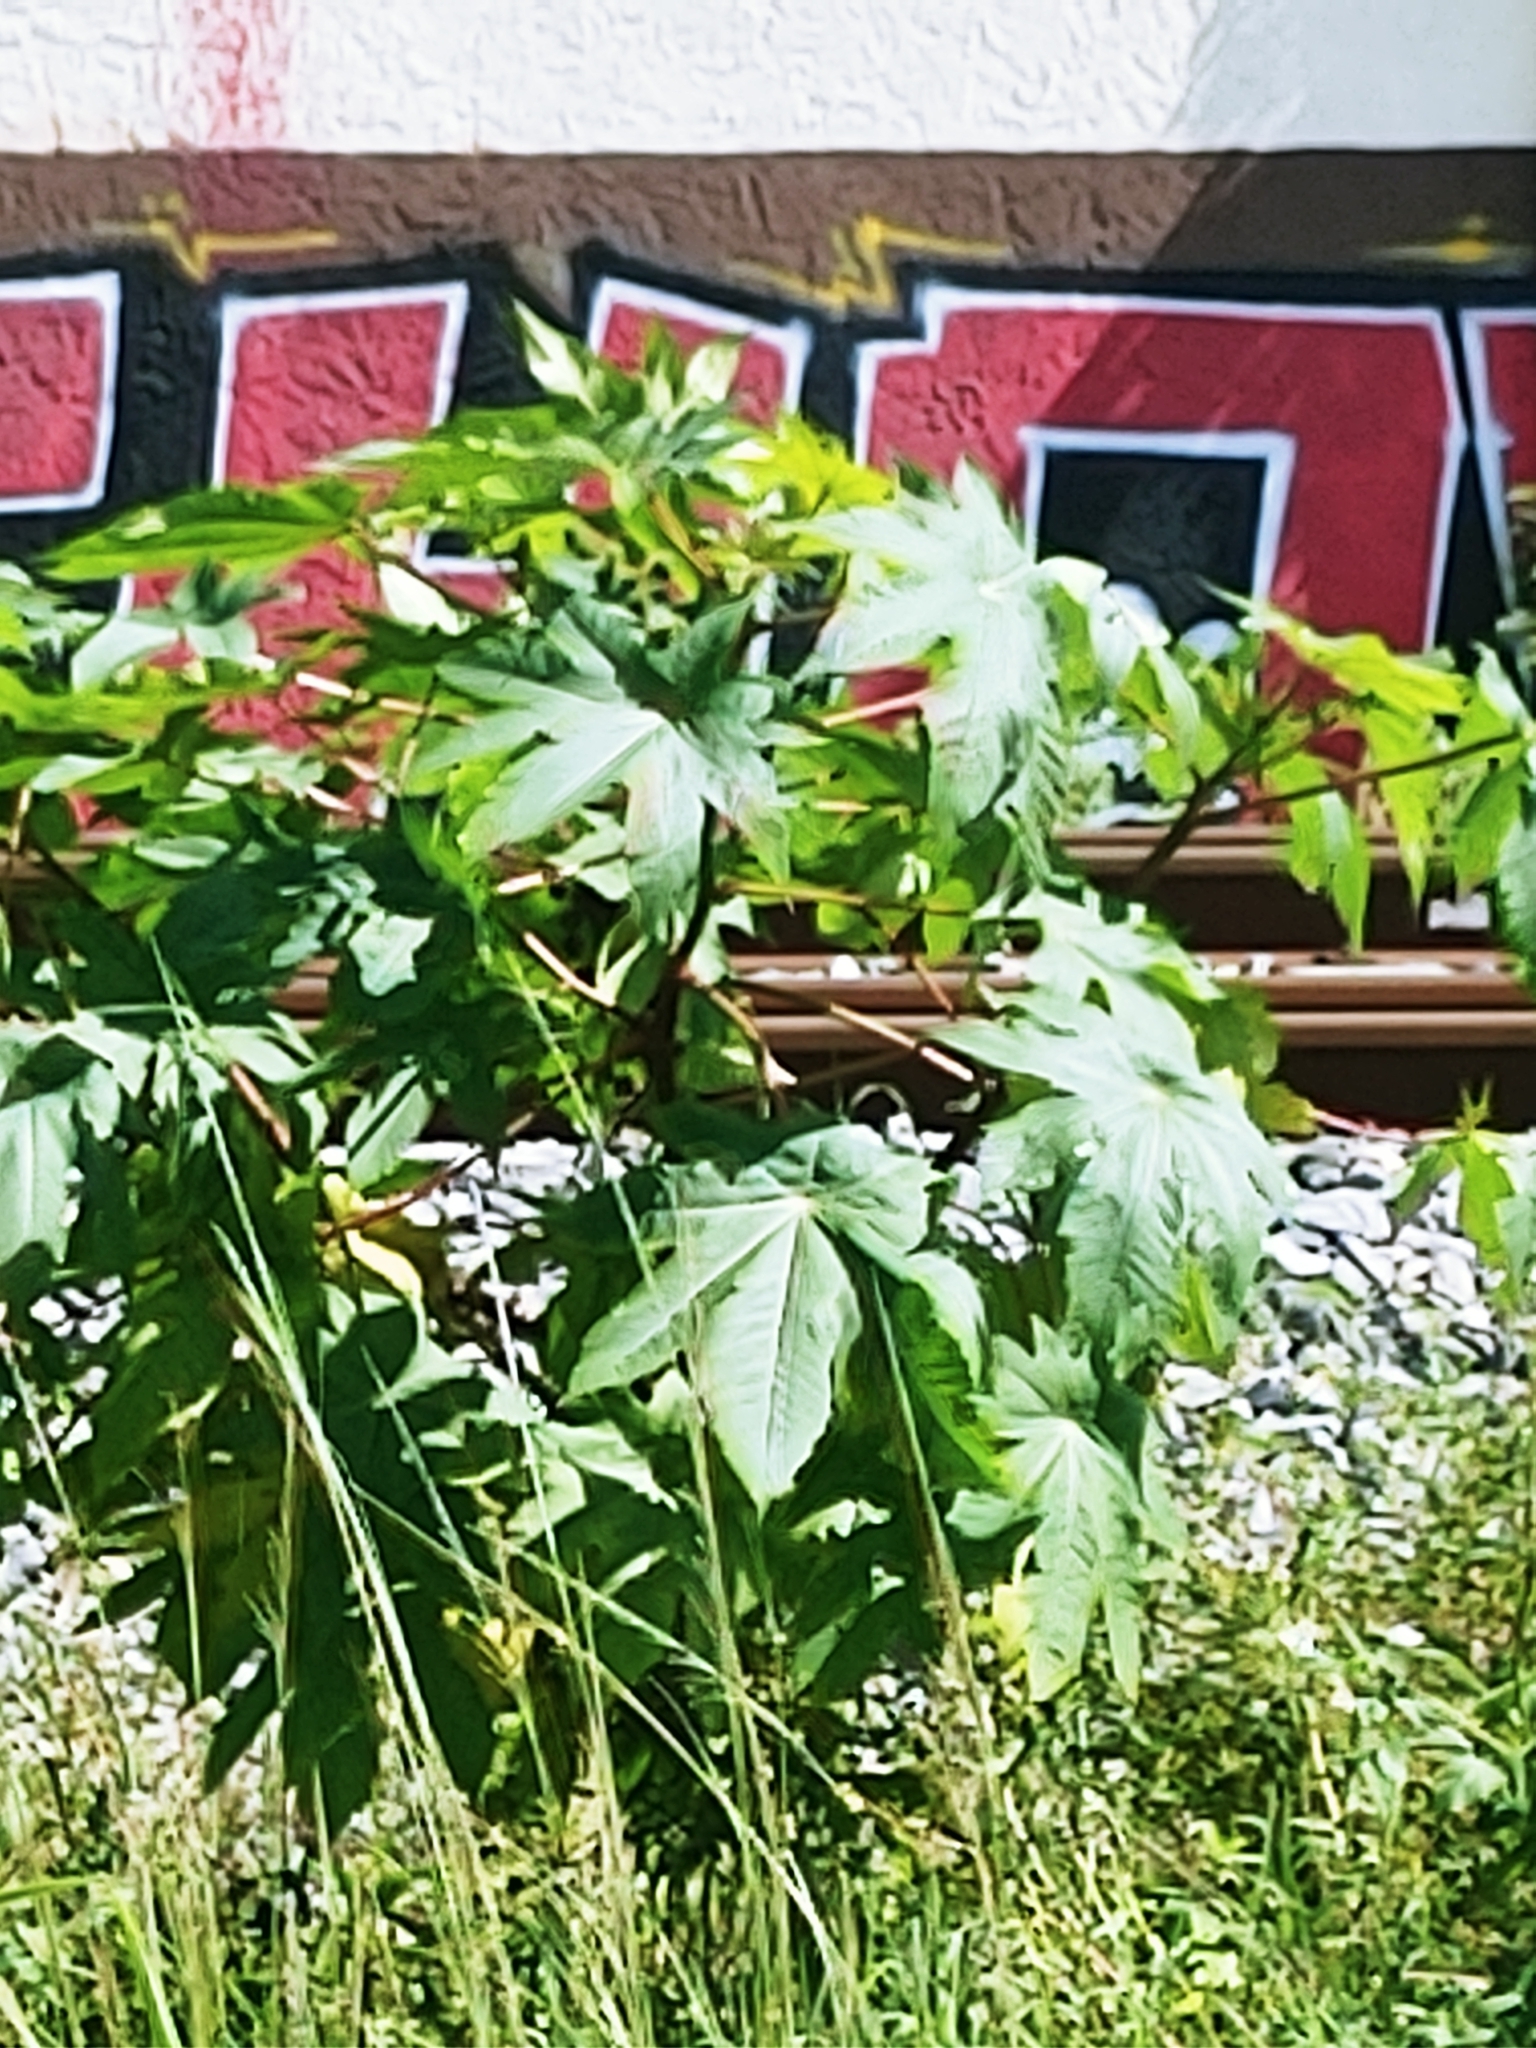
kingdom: Plantae
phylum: Tracheophyta
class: Magnoliopsida
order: Malpighiales
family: Euphorbiaceae
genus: Ricinus
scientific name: Ricinus communis
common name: Castor-oil-plant
